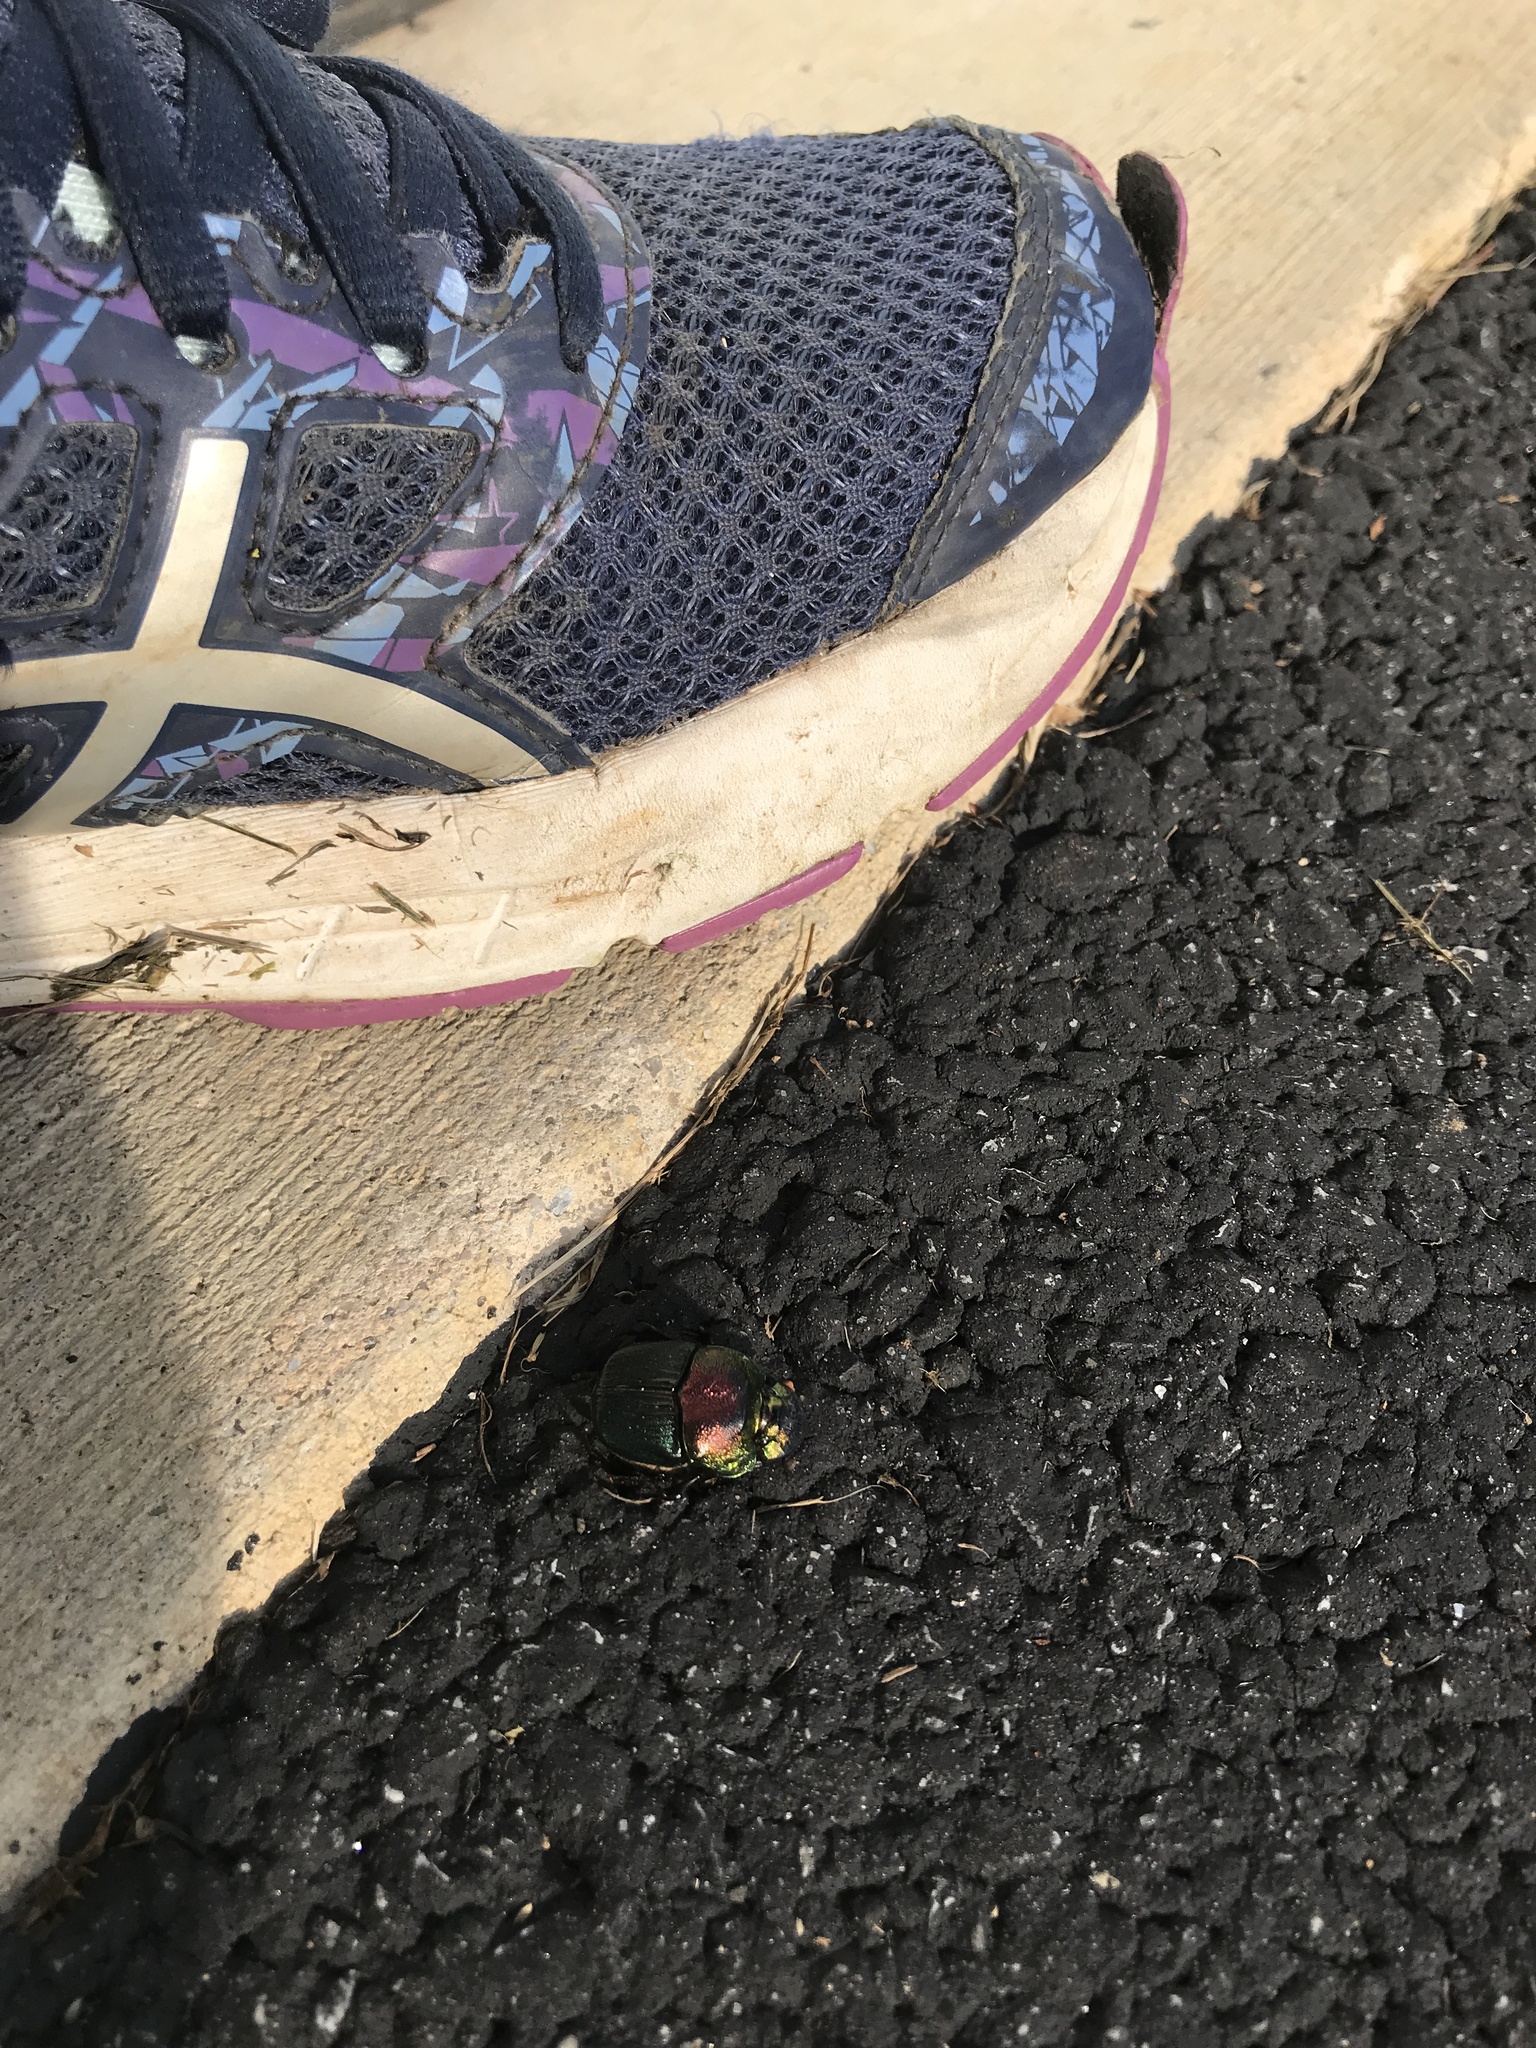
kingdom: Animalia
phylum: Arthropoda
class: Insecta
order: Coleoptera
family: Scarabaeidae
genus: Phanaeus
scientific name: Phanaeus vindex
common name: Rainbow scarab
